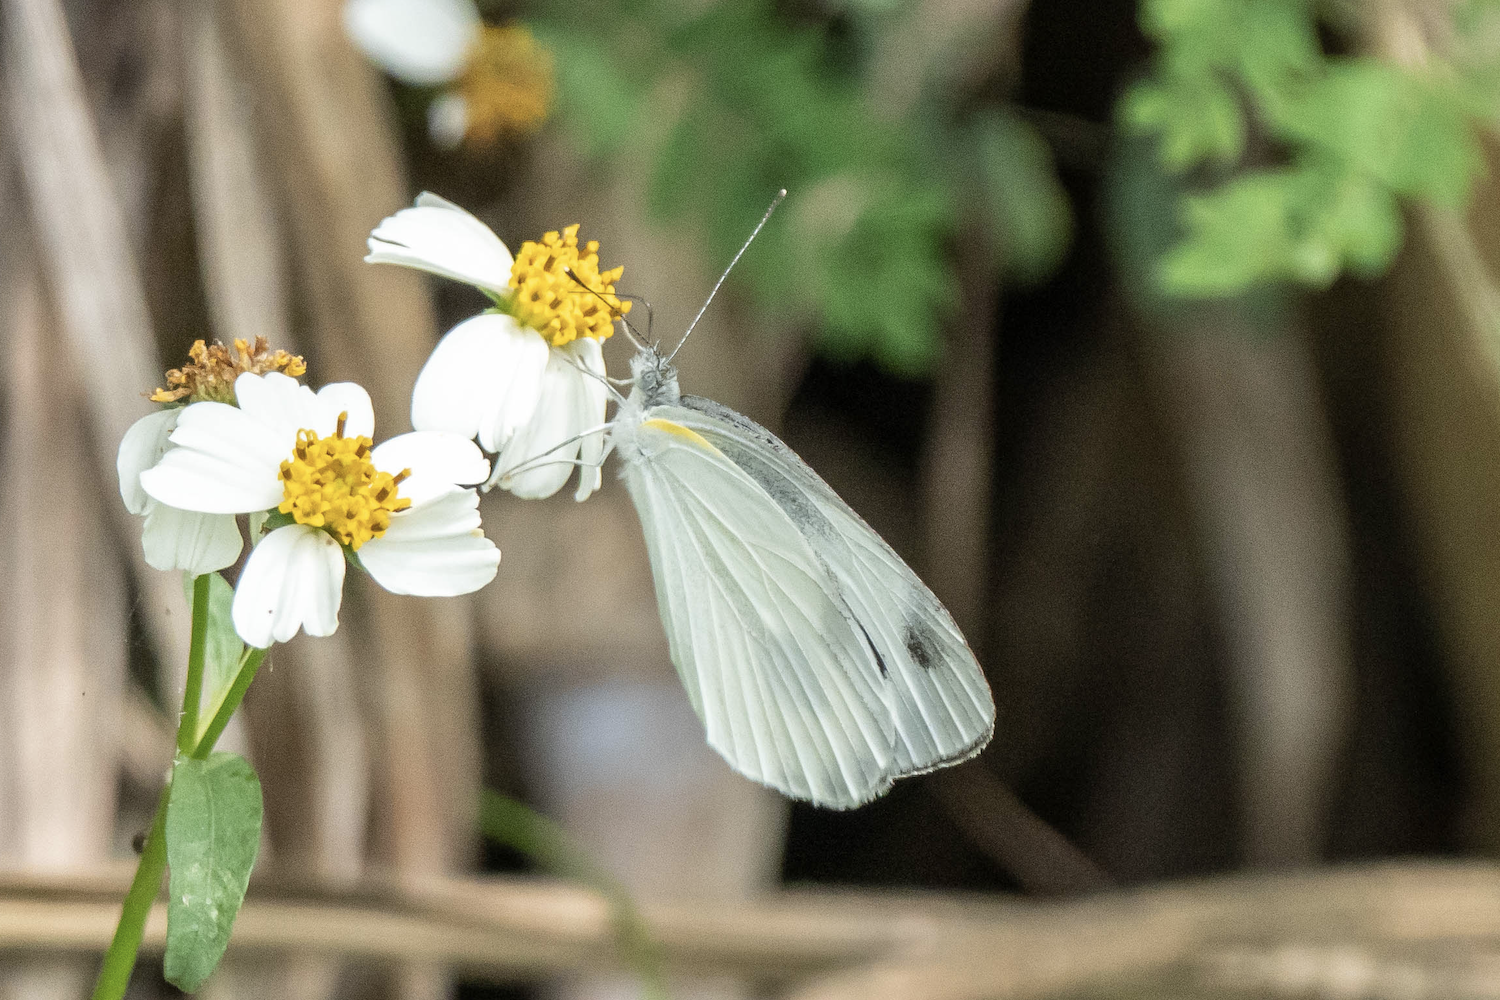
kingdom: Animalia
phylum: Arthropoda
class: Insecta
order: Lepidoptera
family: Pieridae
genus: Pieris
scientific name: Pieris canidia
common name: Indian cabbage white
